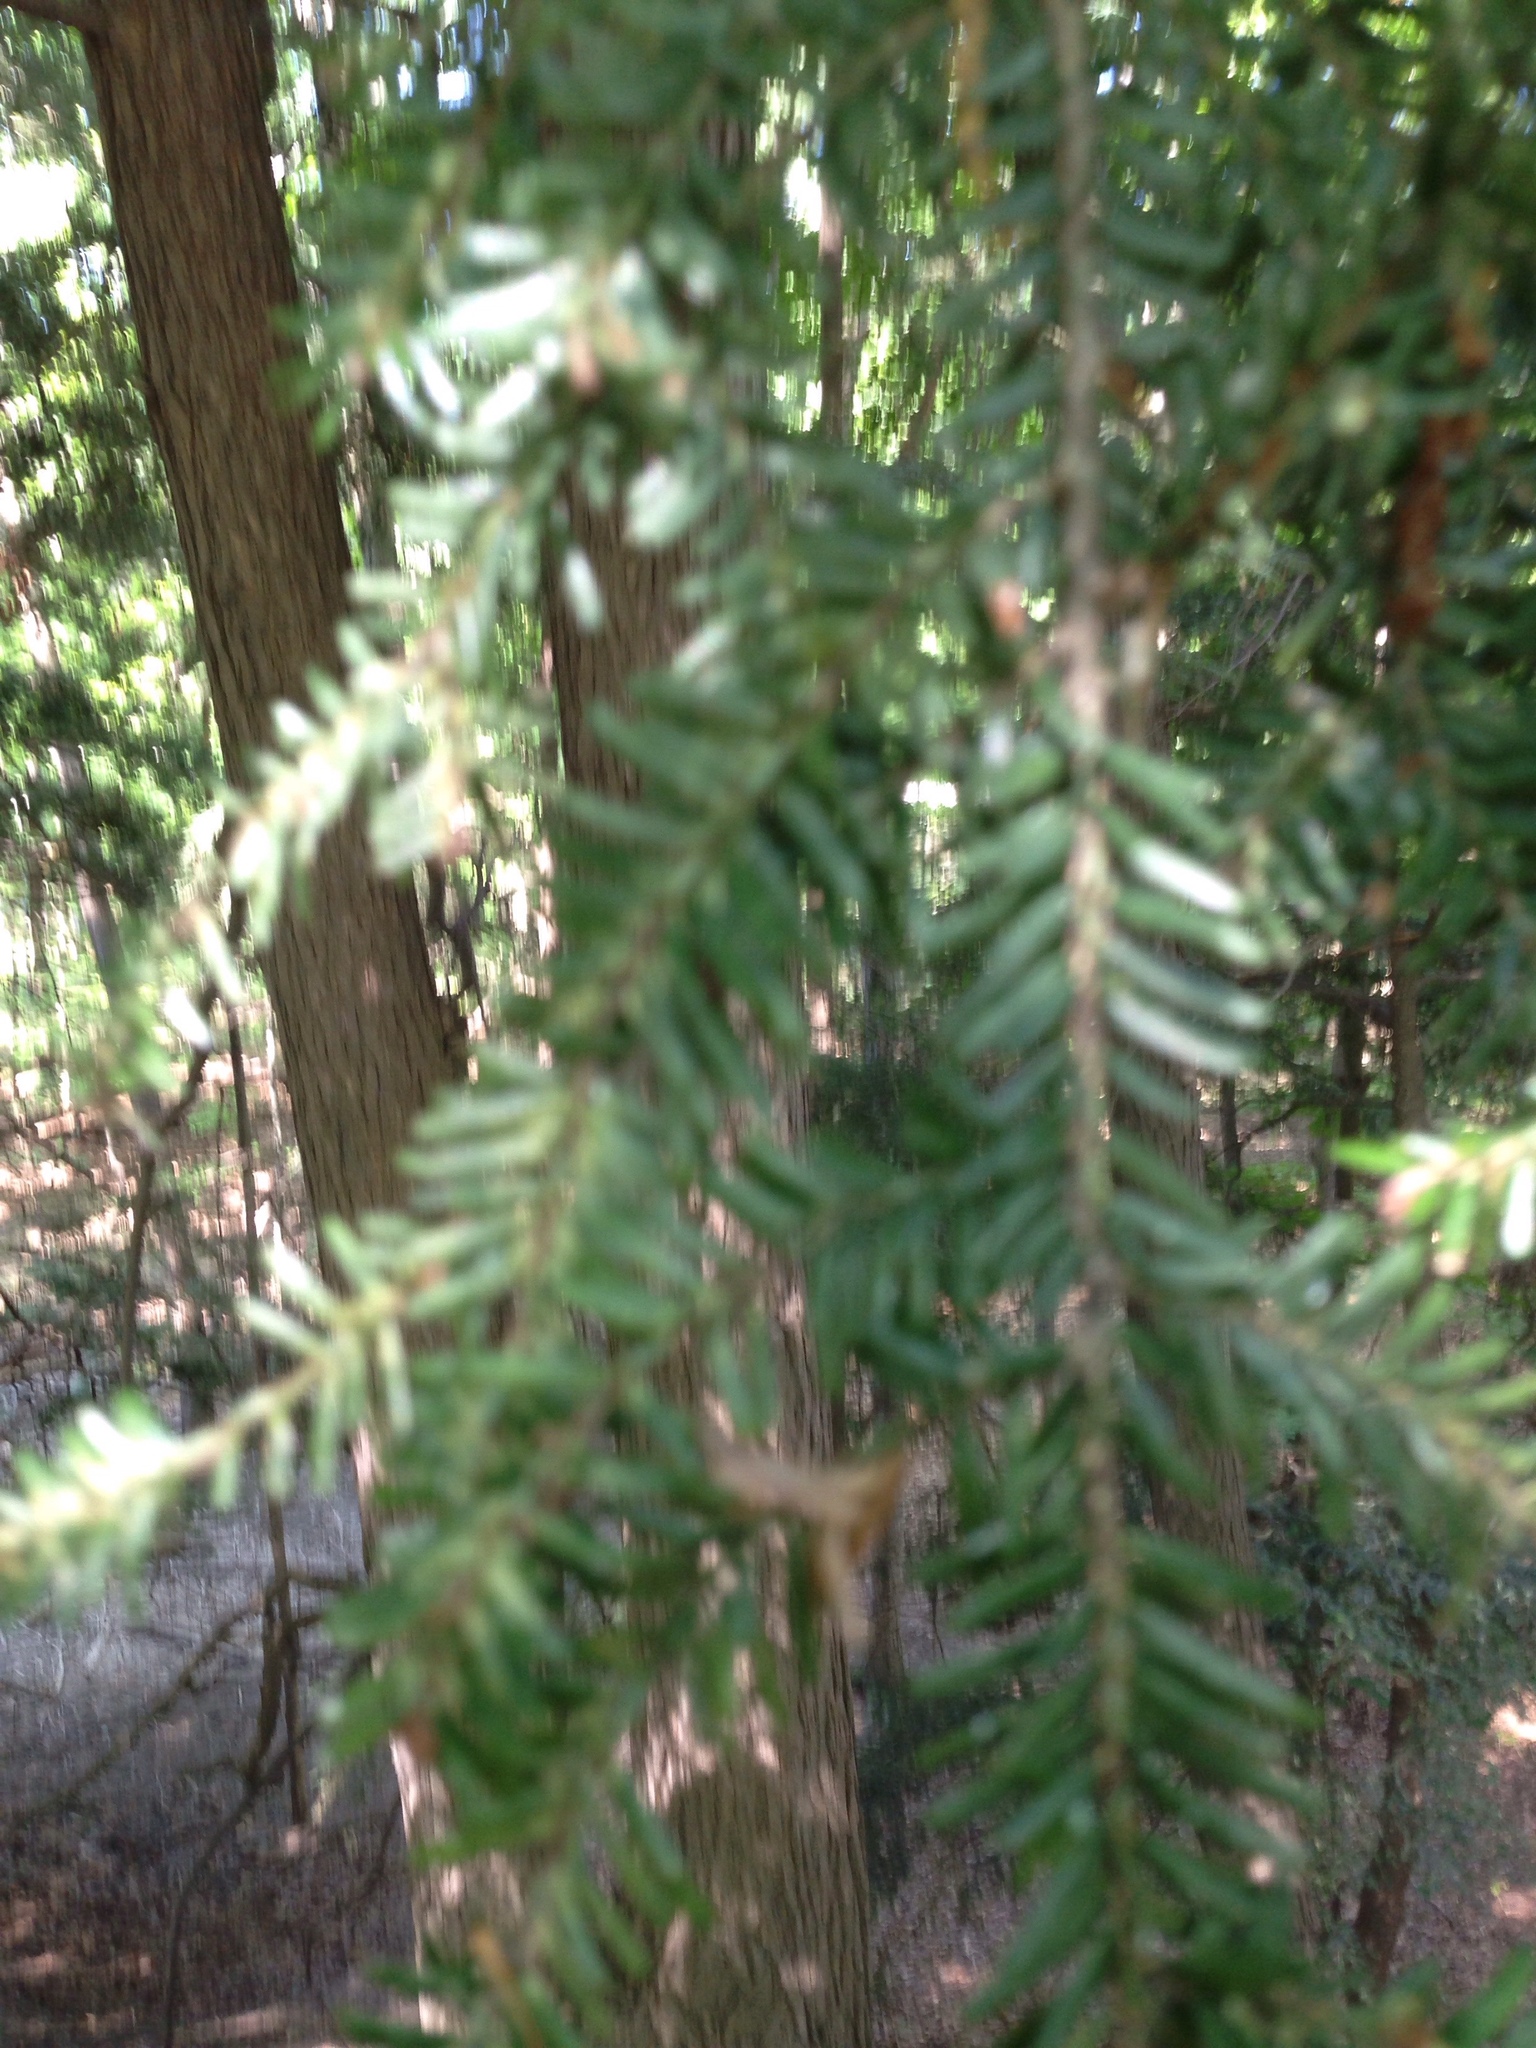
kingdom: Plantae
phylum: Tracheophyta
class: Pinopsida
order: Pinales
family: Pinaceae
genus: Tsuga
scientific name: Tsuga canadensis
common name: Eastern hemlock
